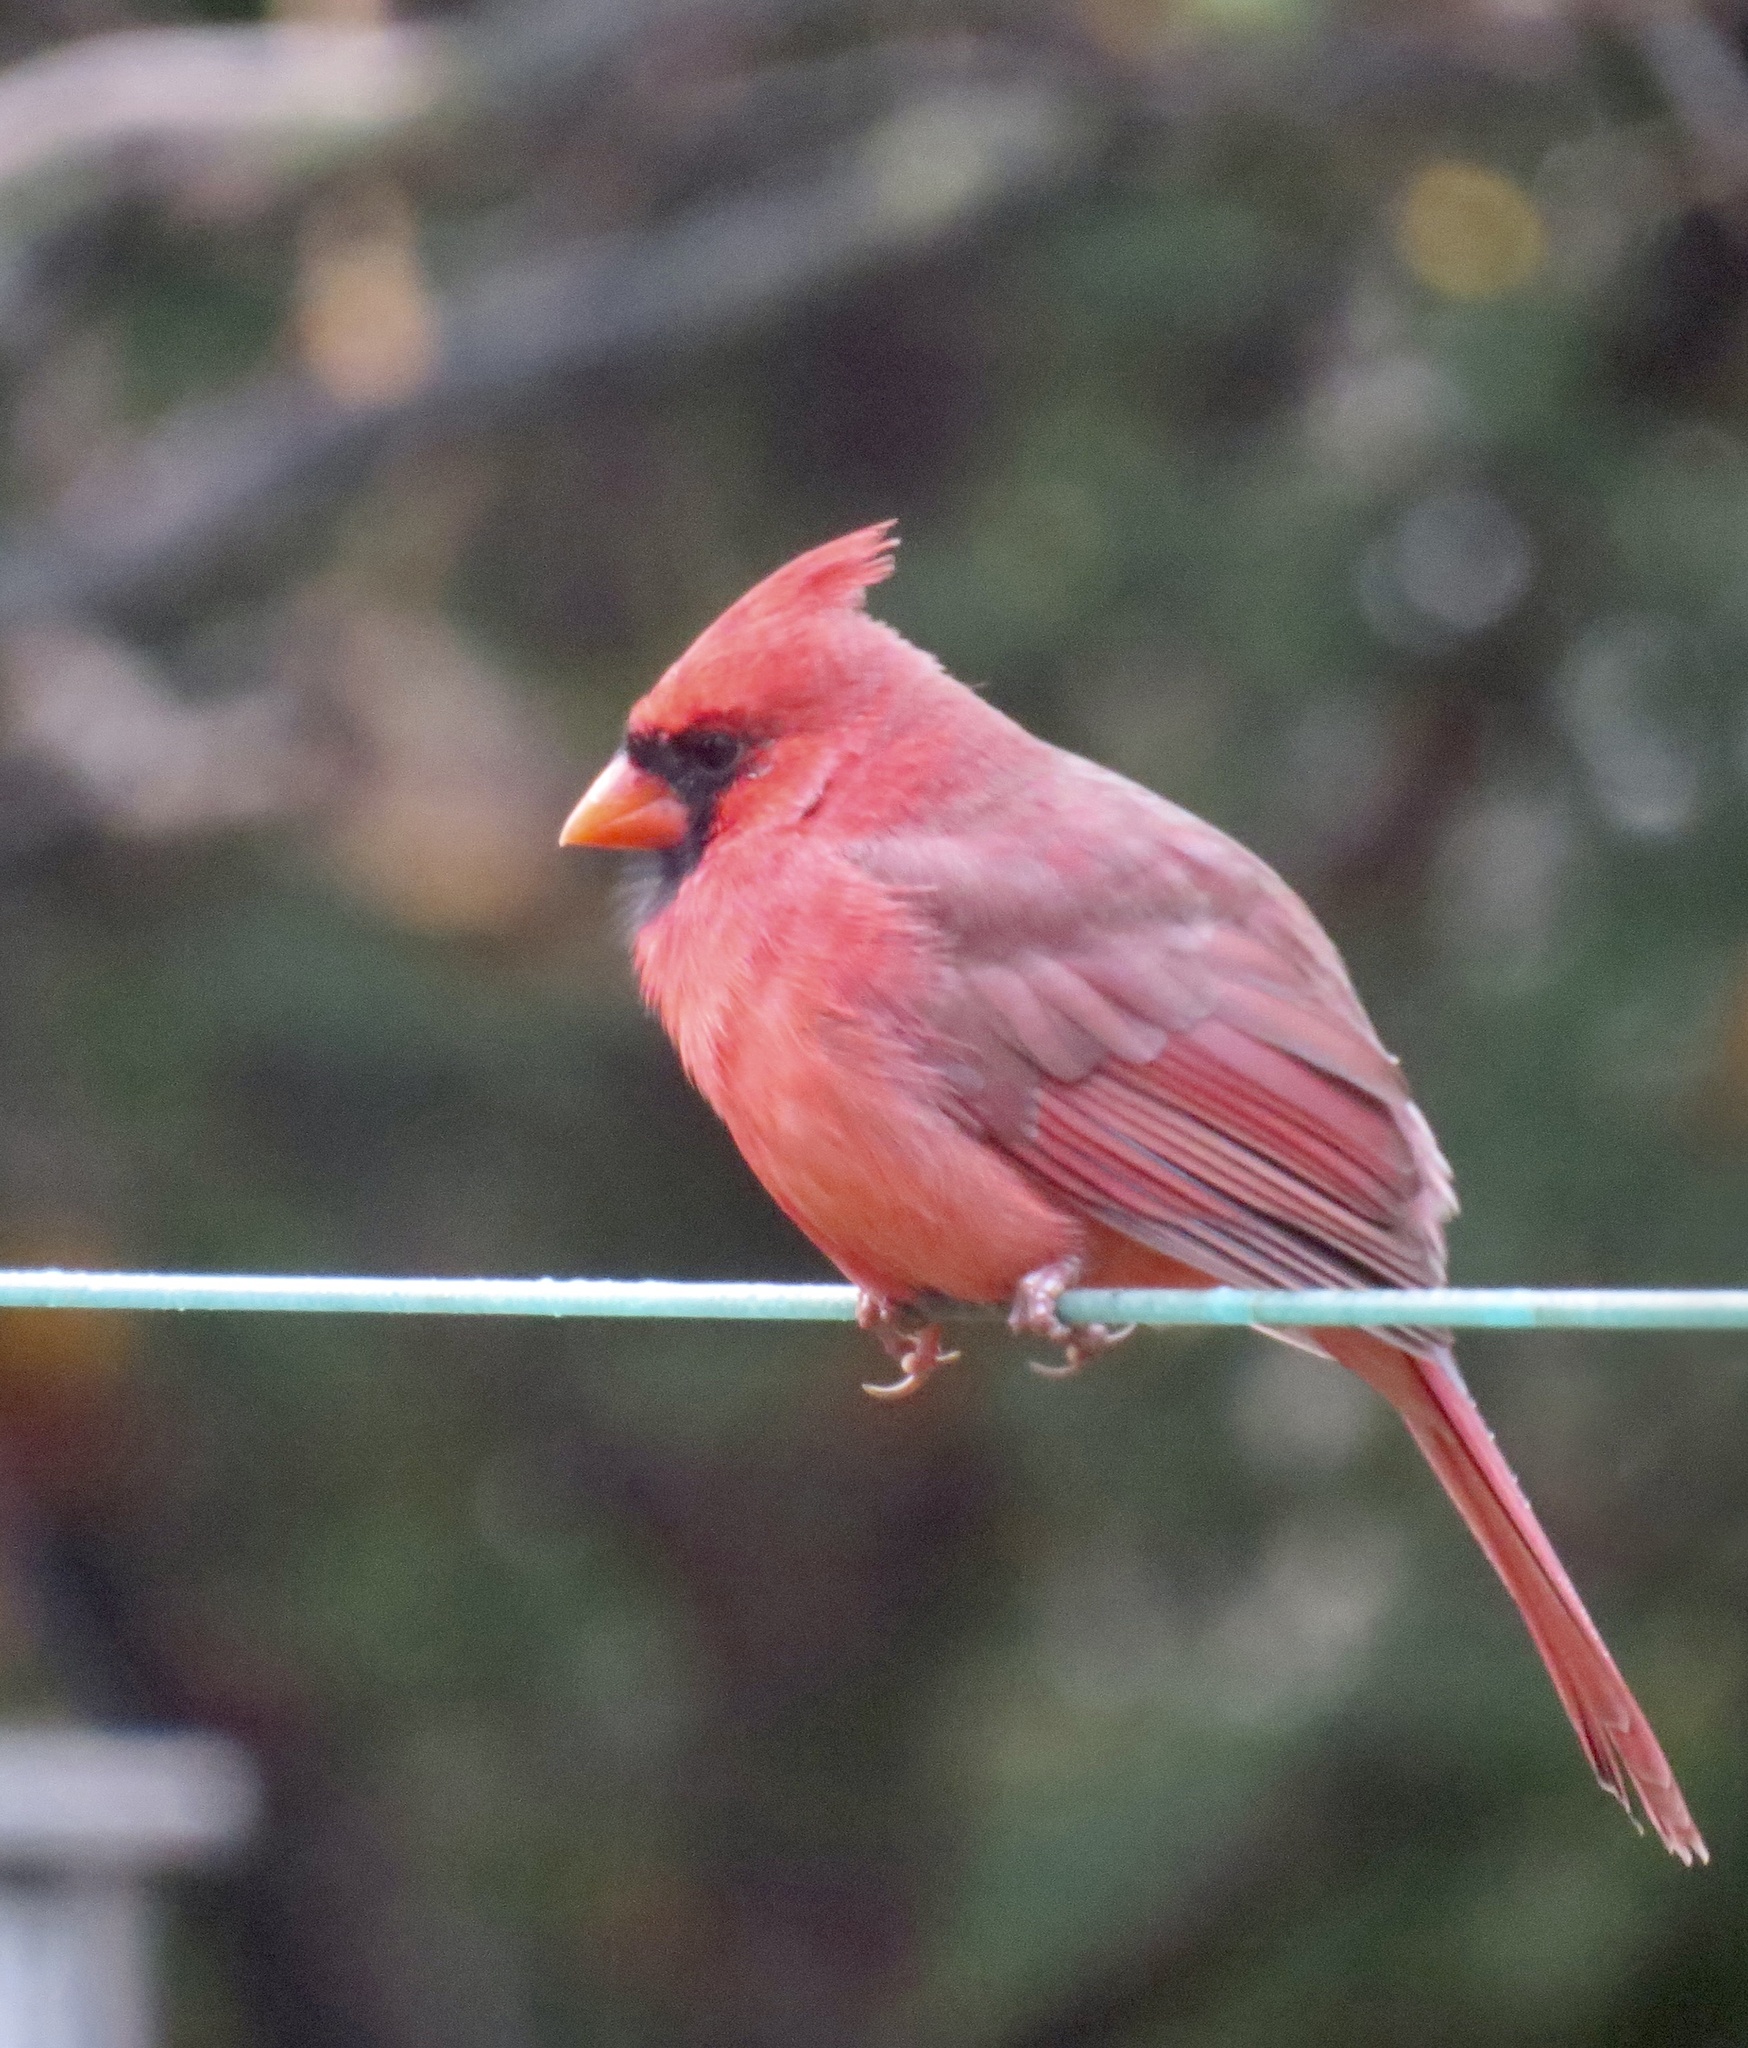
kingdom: Animalia
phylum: Chordata
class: Aves
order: Passeriformes
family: Cardinalidae
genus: Cardinalis
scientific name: Cardinalis cardinalis
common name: Northern cardinal
